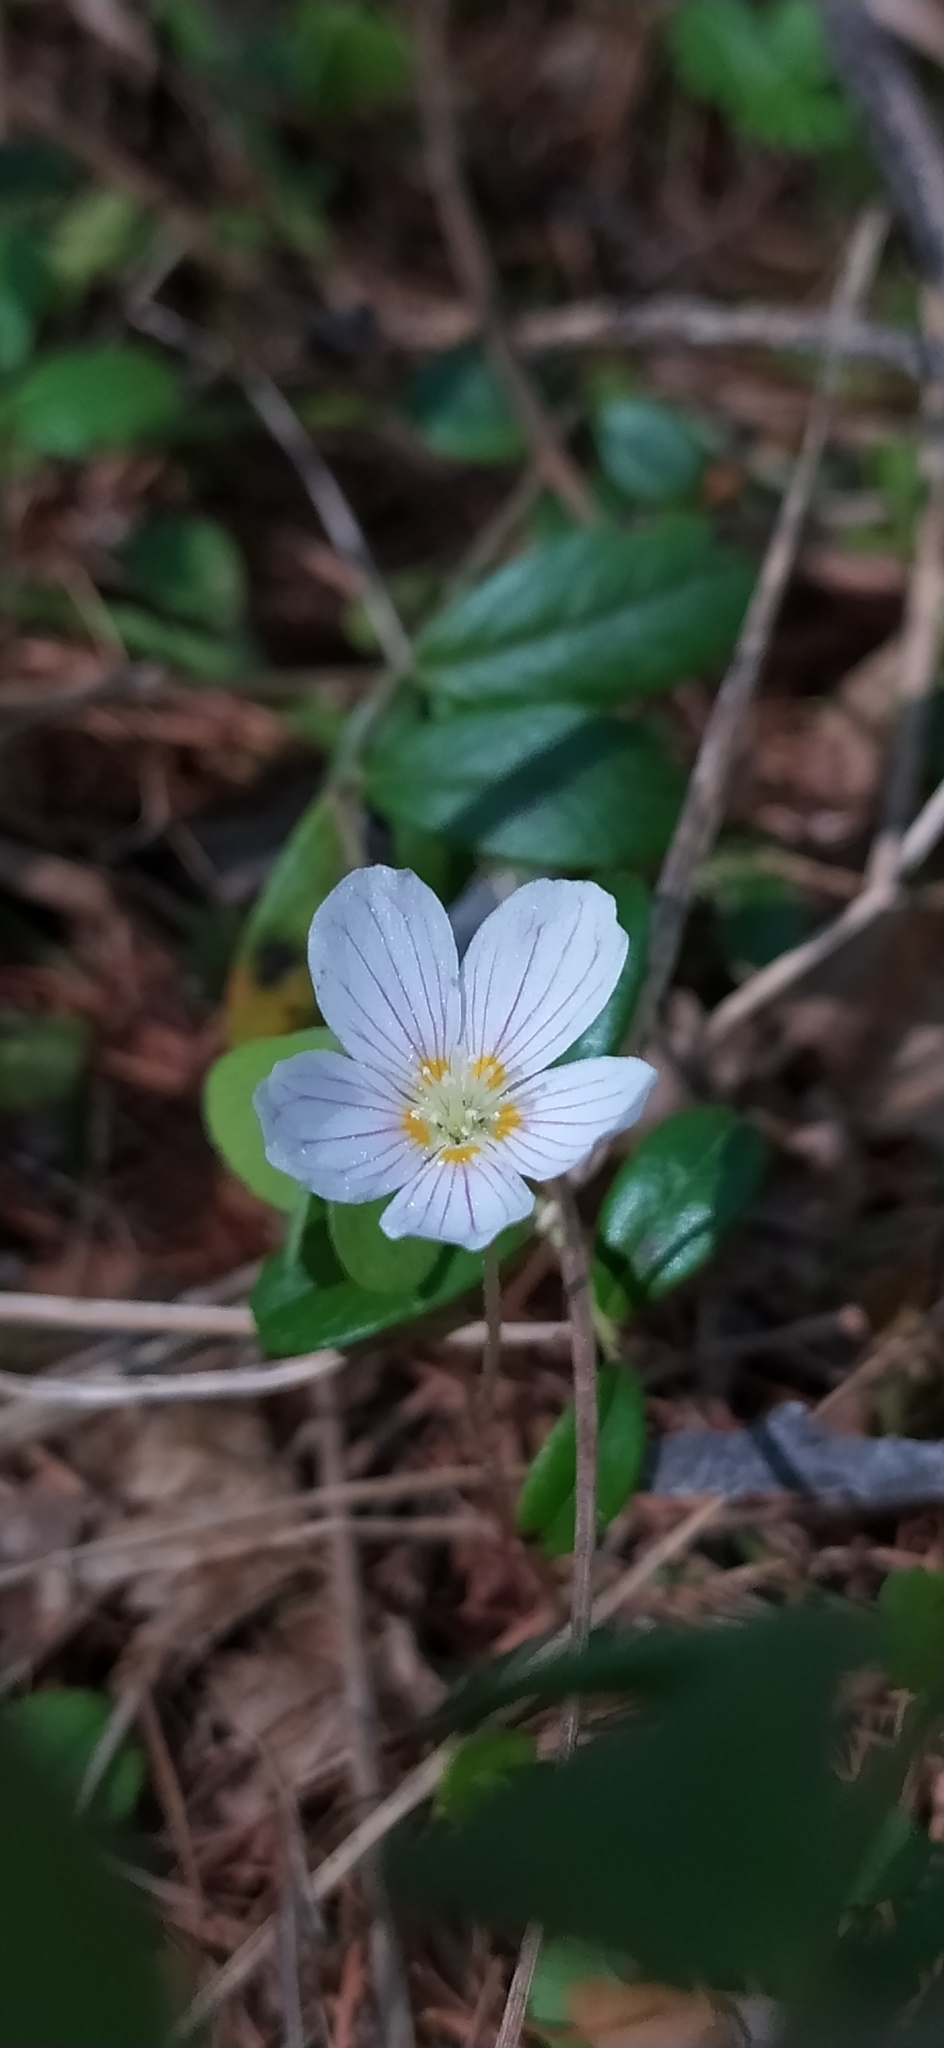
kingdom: Plantae
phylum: Tracheophyta
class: Magnoliopsida
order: Oxalidales
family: Oxalidaceae
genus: Oxalis
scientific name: Oxalis acetosella
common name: Wood-sorrel
